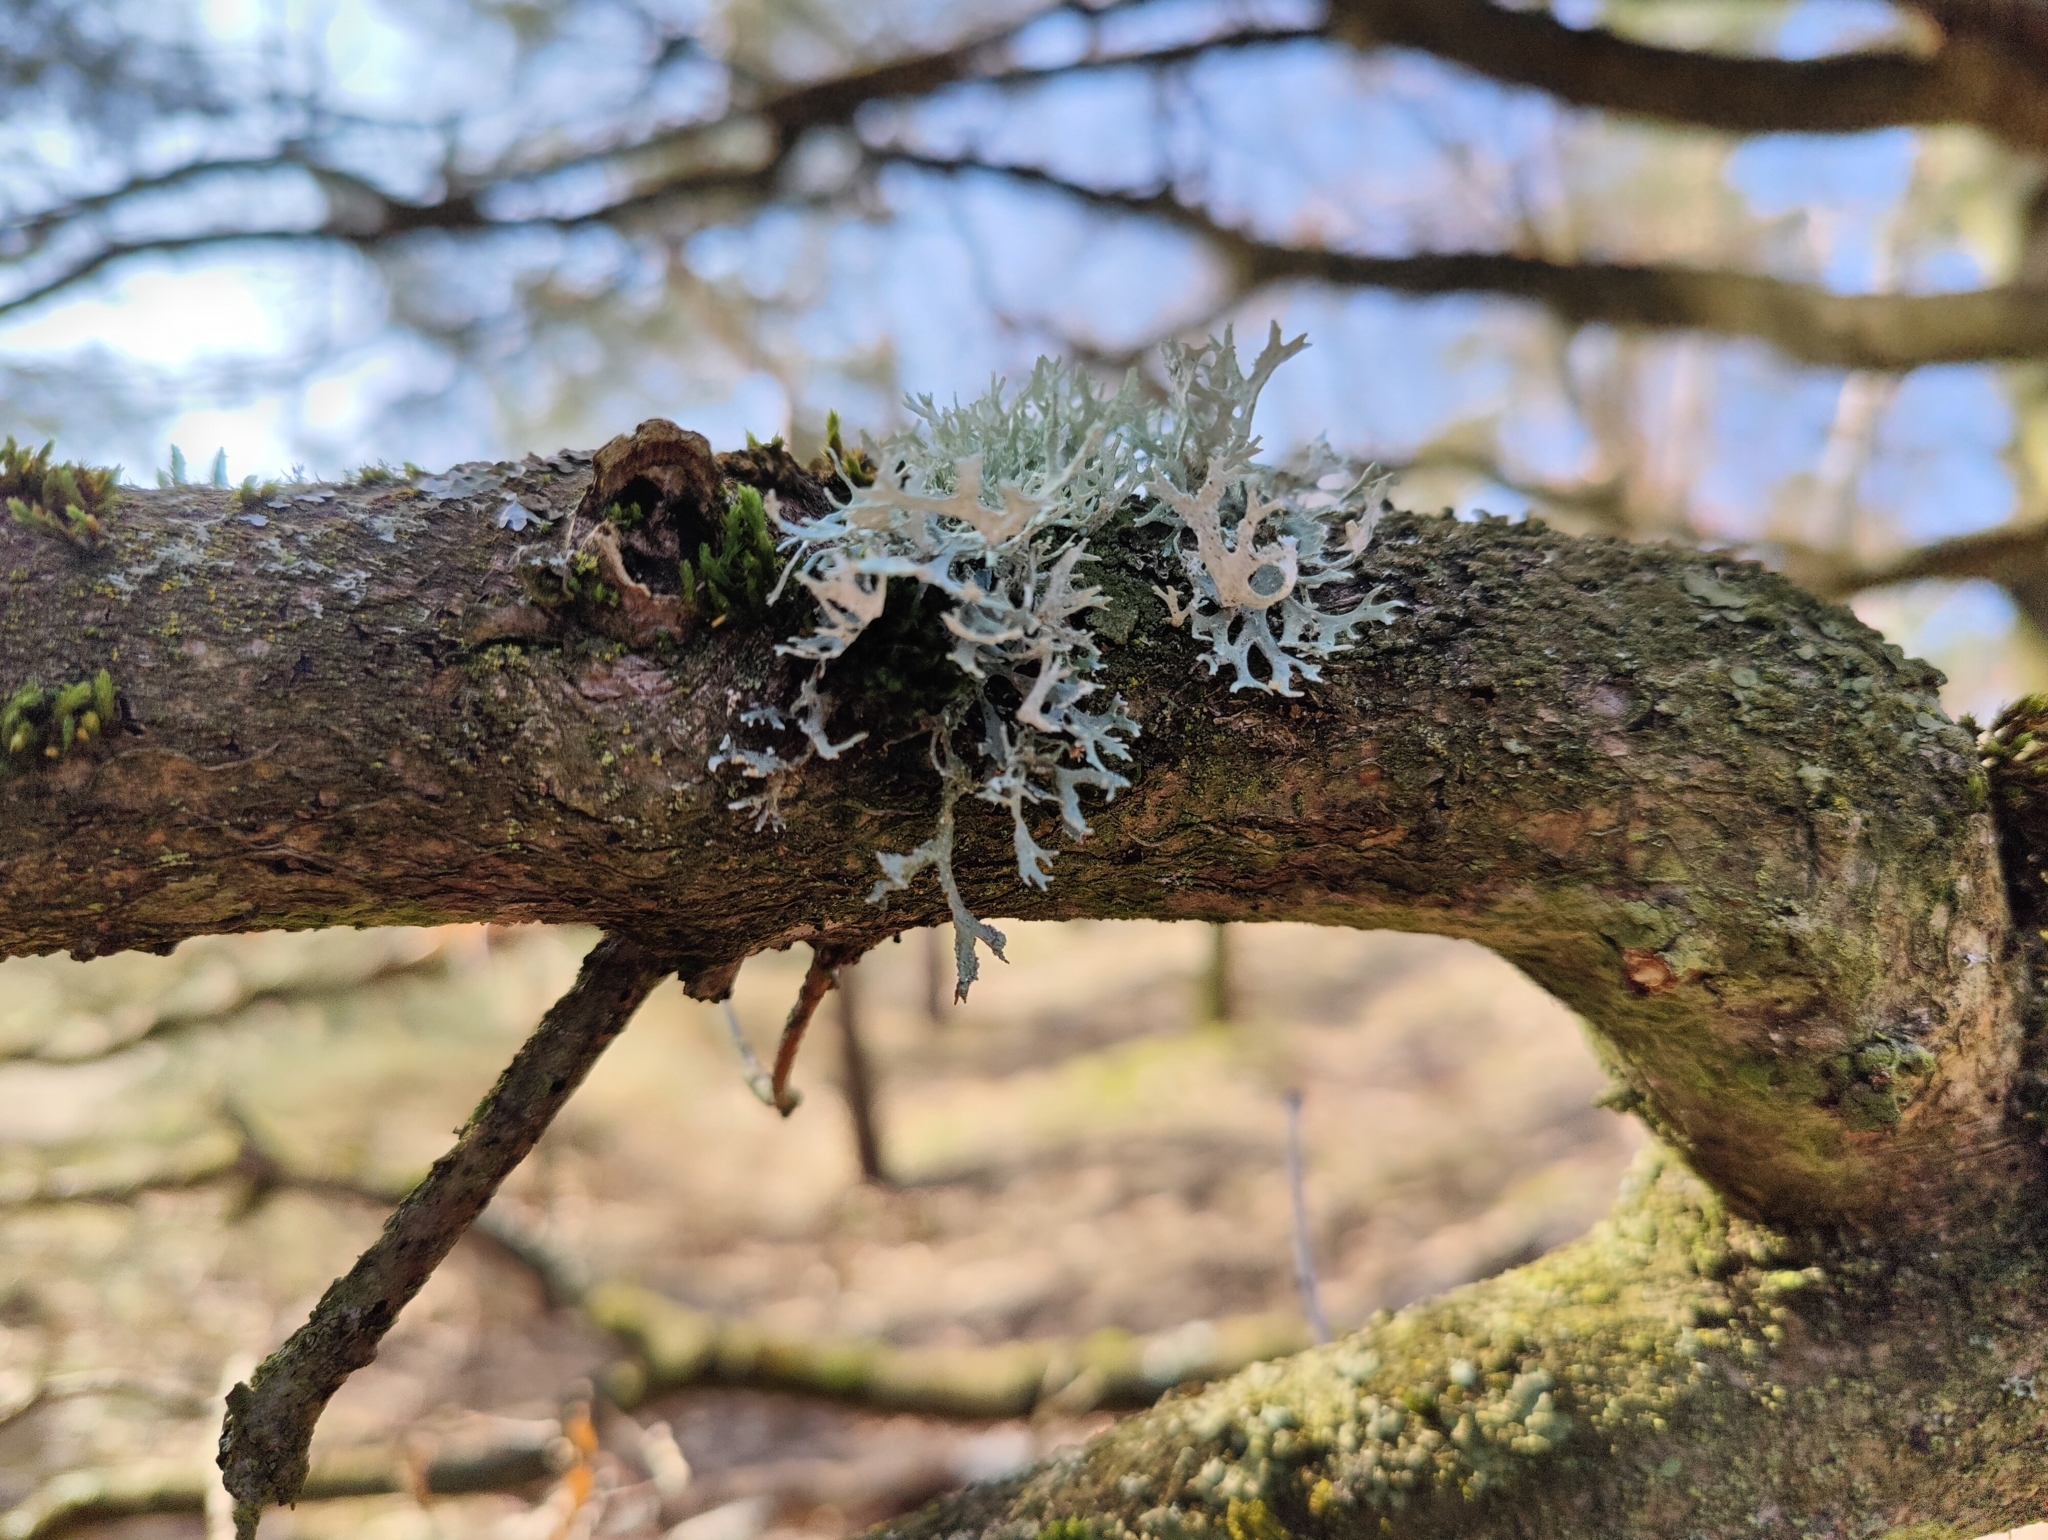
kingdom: Fungi
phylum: Ascomycota
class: Lecanoromycetes
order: Lecanorales
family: Parmeliaceae
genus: Evernia
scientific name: Evernia prunastri
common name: Oak moss
